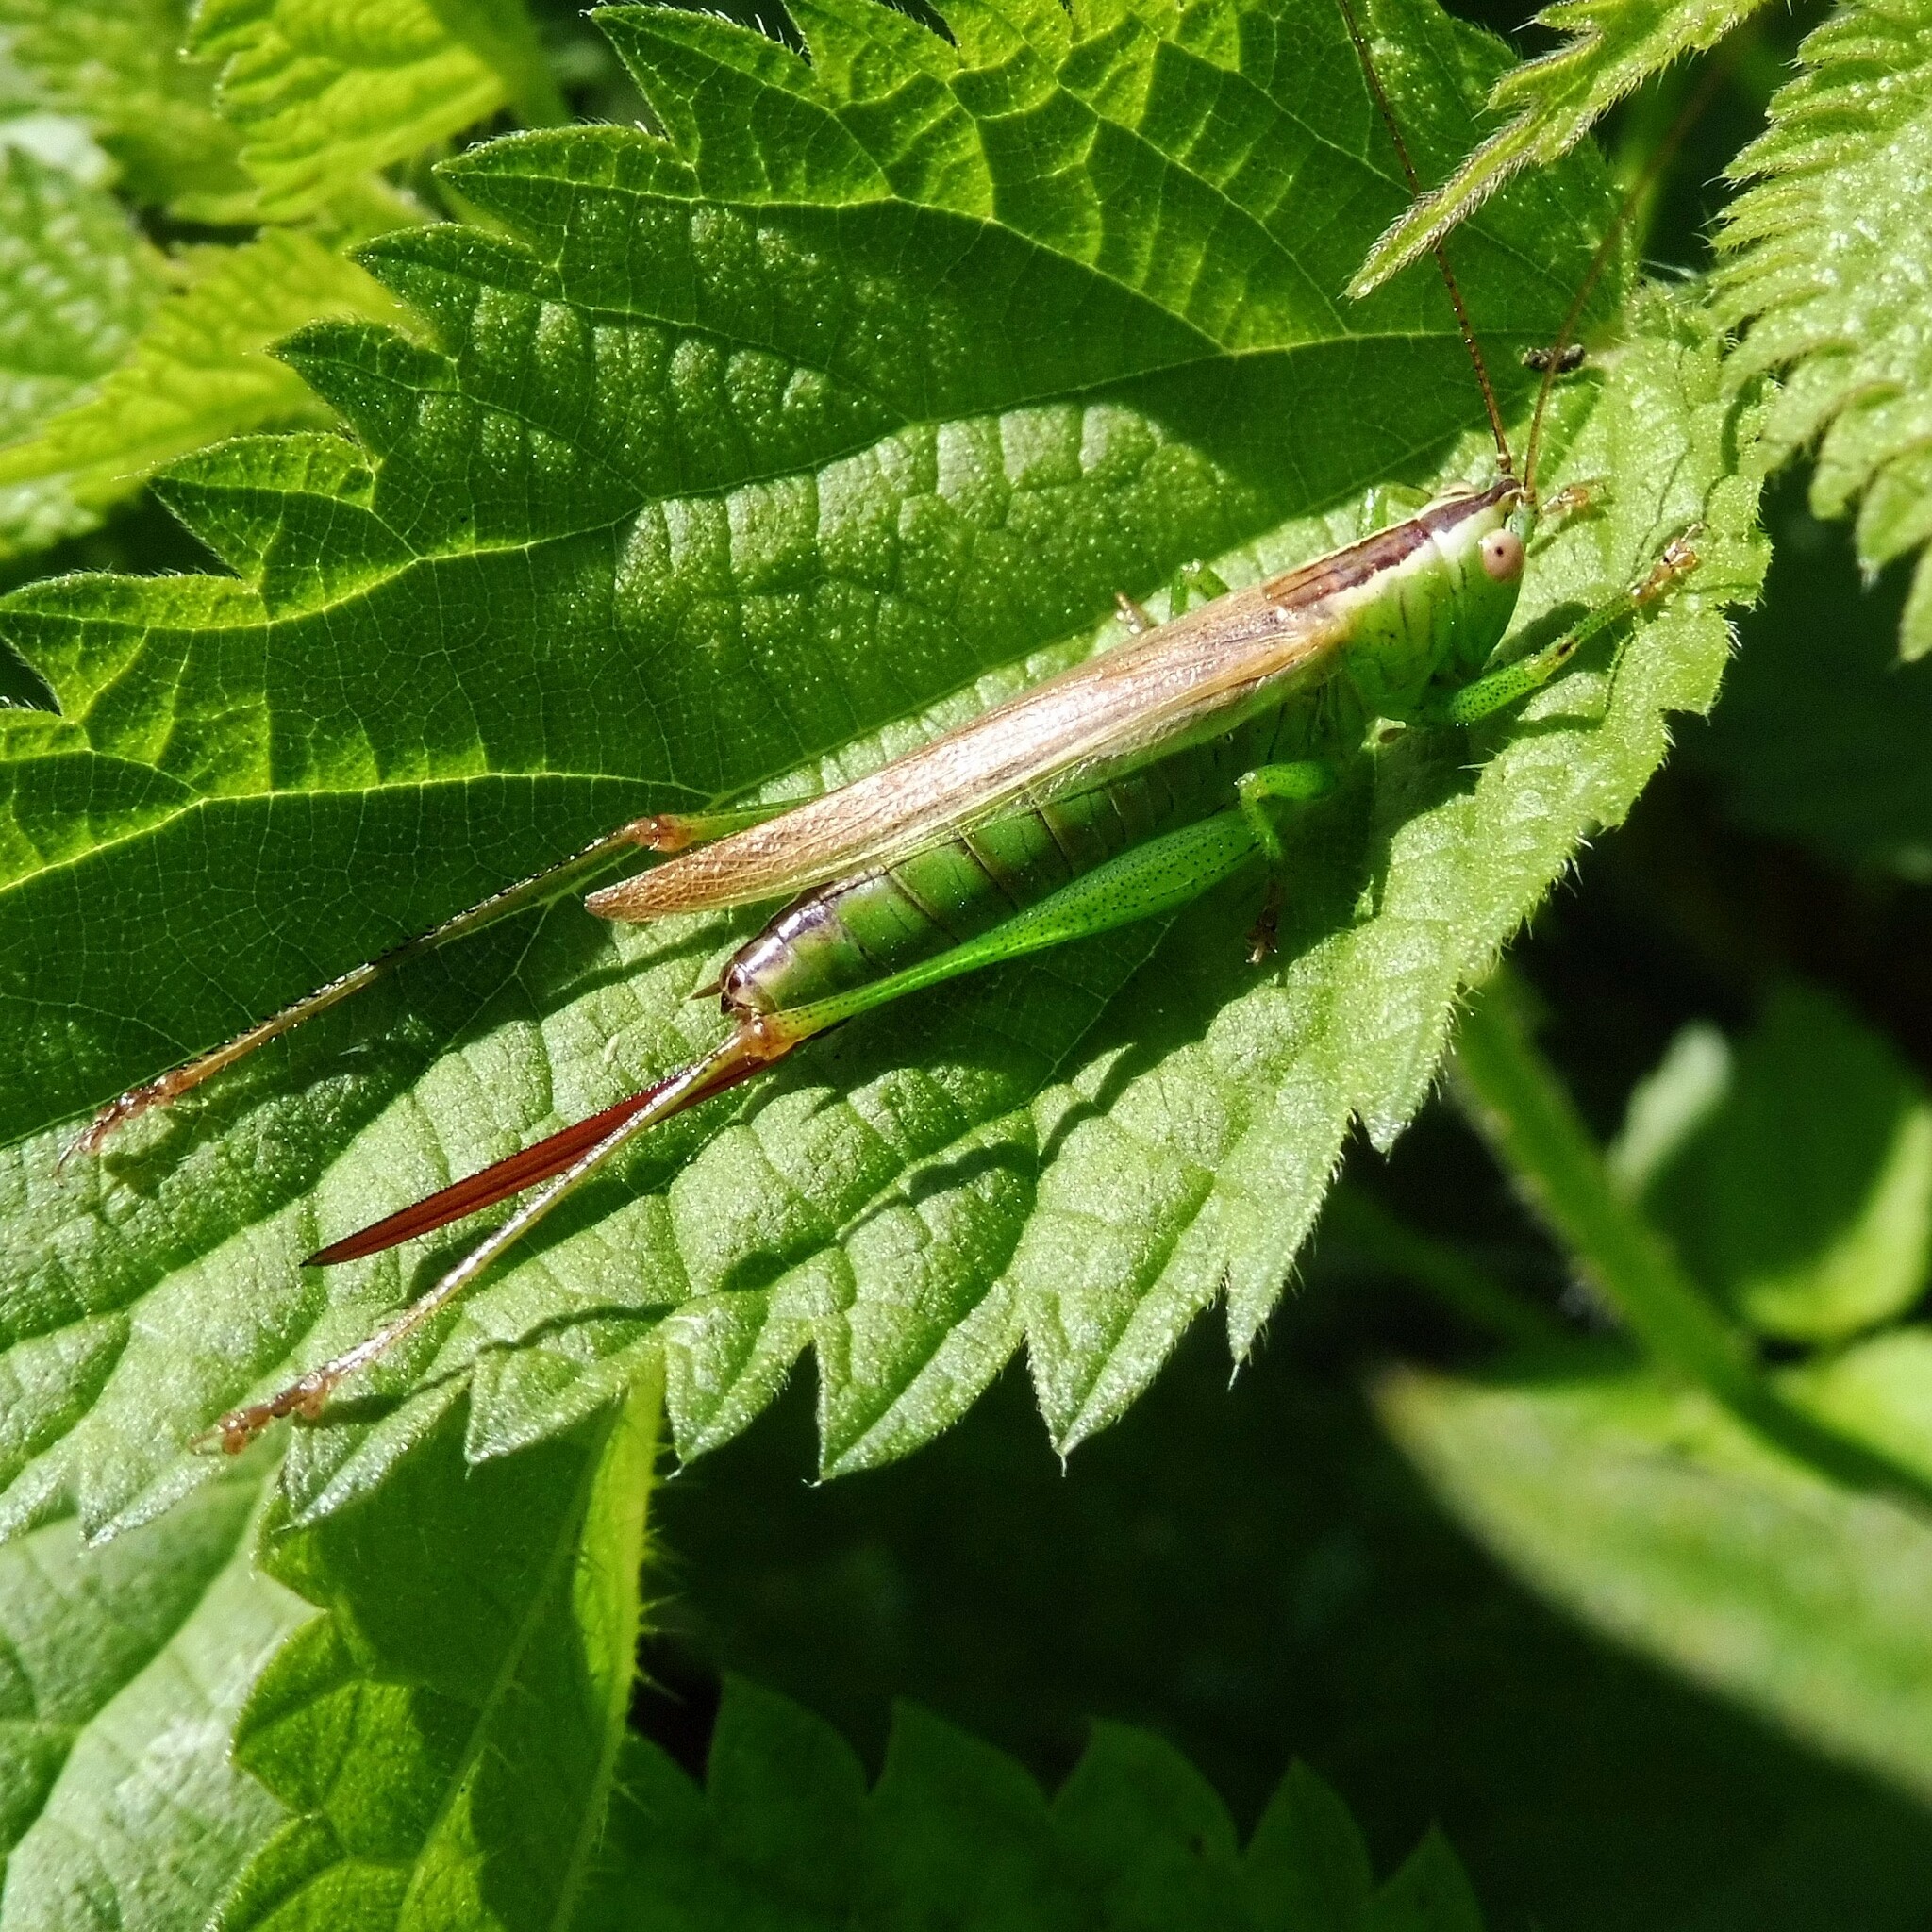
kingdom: Animalia
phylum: Arthropoda
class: Insecta
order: Orthoptera
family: Tettigoniidae
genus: Conocephalus
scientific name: Conocephalus fuscus
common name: Long-winged conehead
